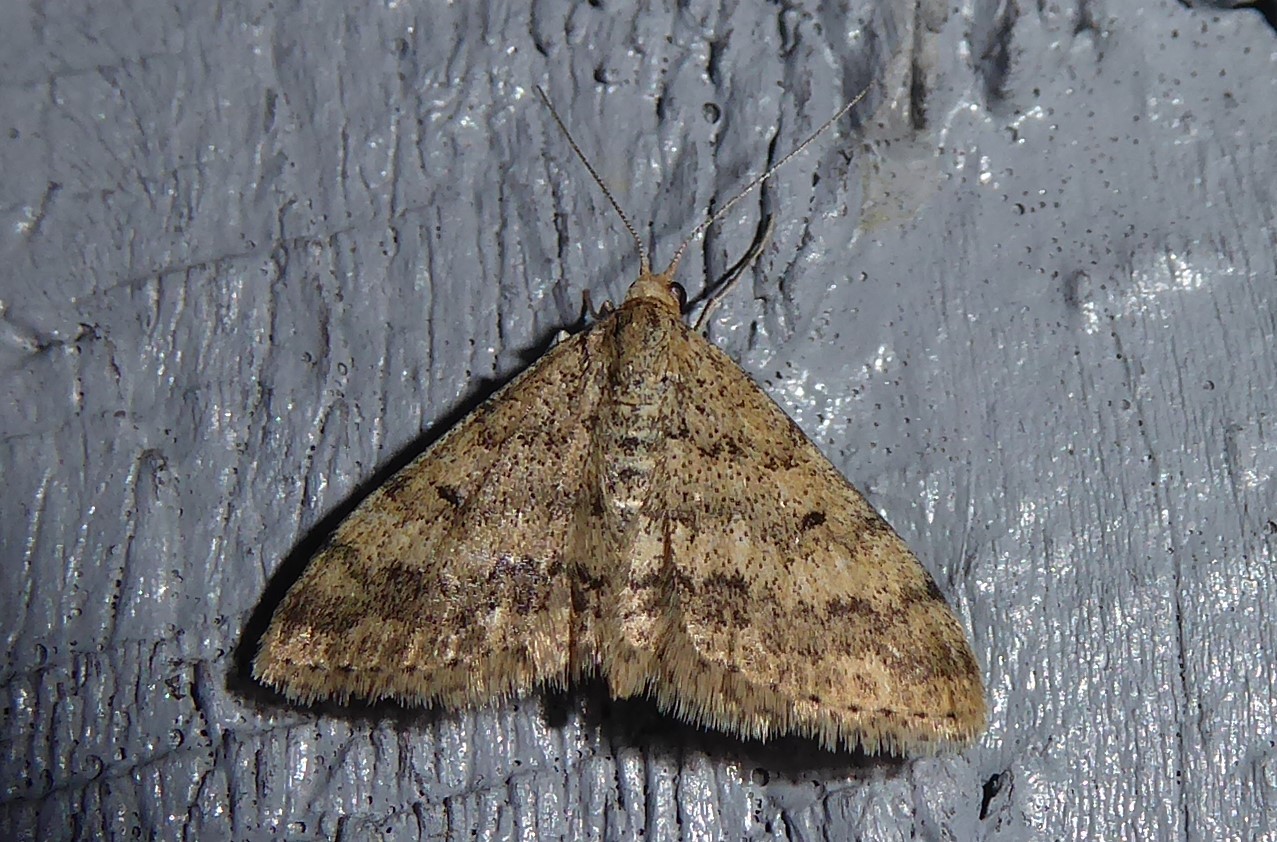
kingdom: Animalia
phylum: Arthropoda
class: Insecta
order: Lepidoptera
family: Geometridae
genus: Scopula
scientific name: Scopula rubraria
